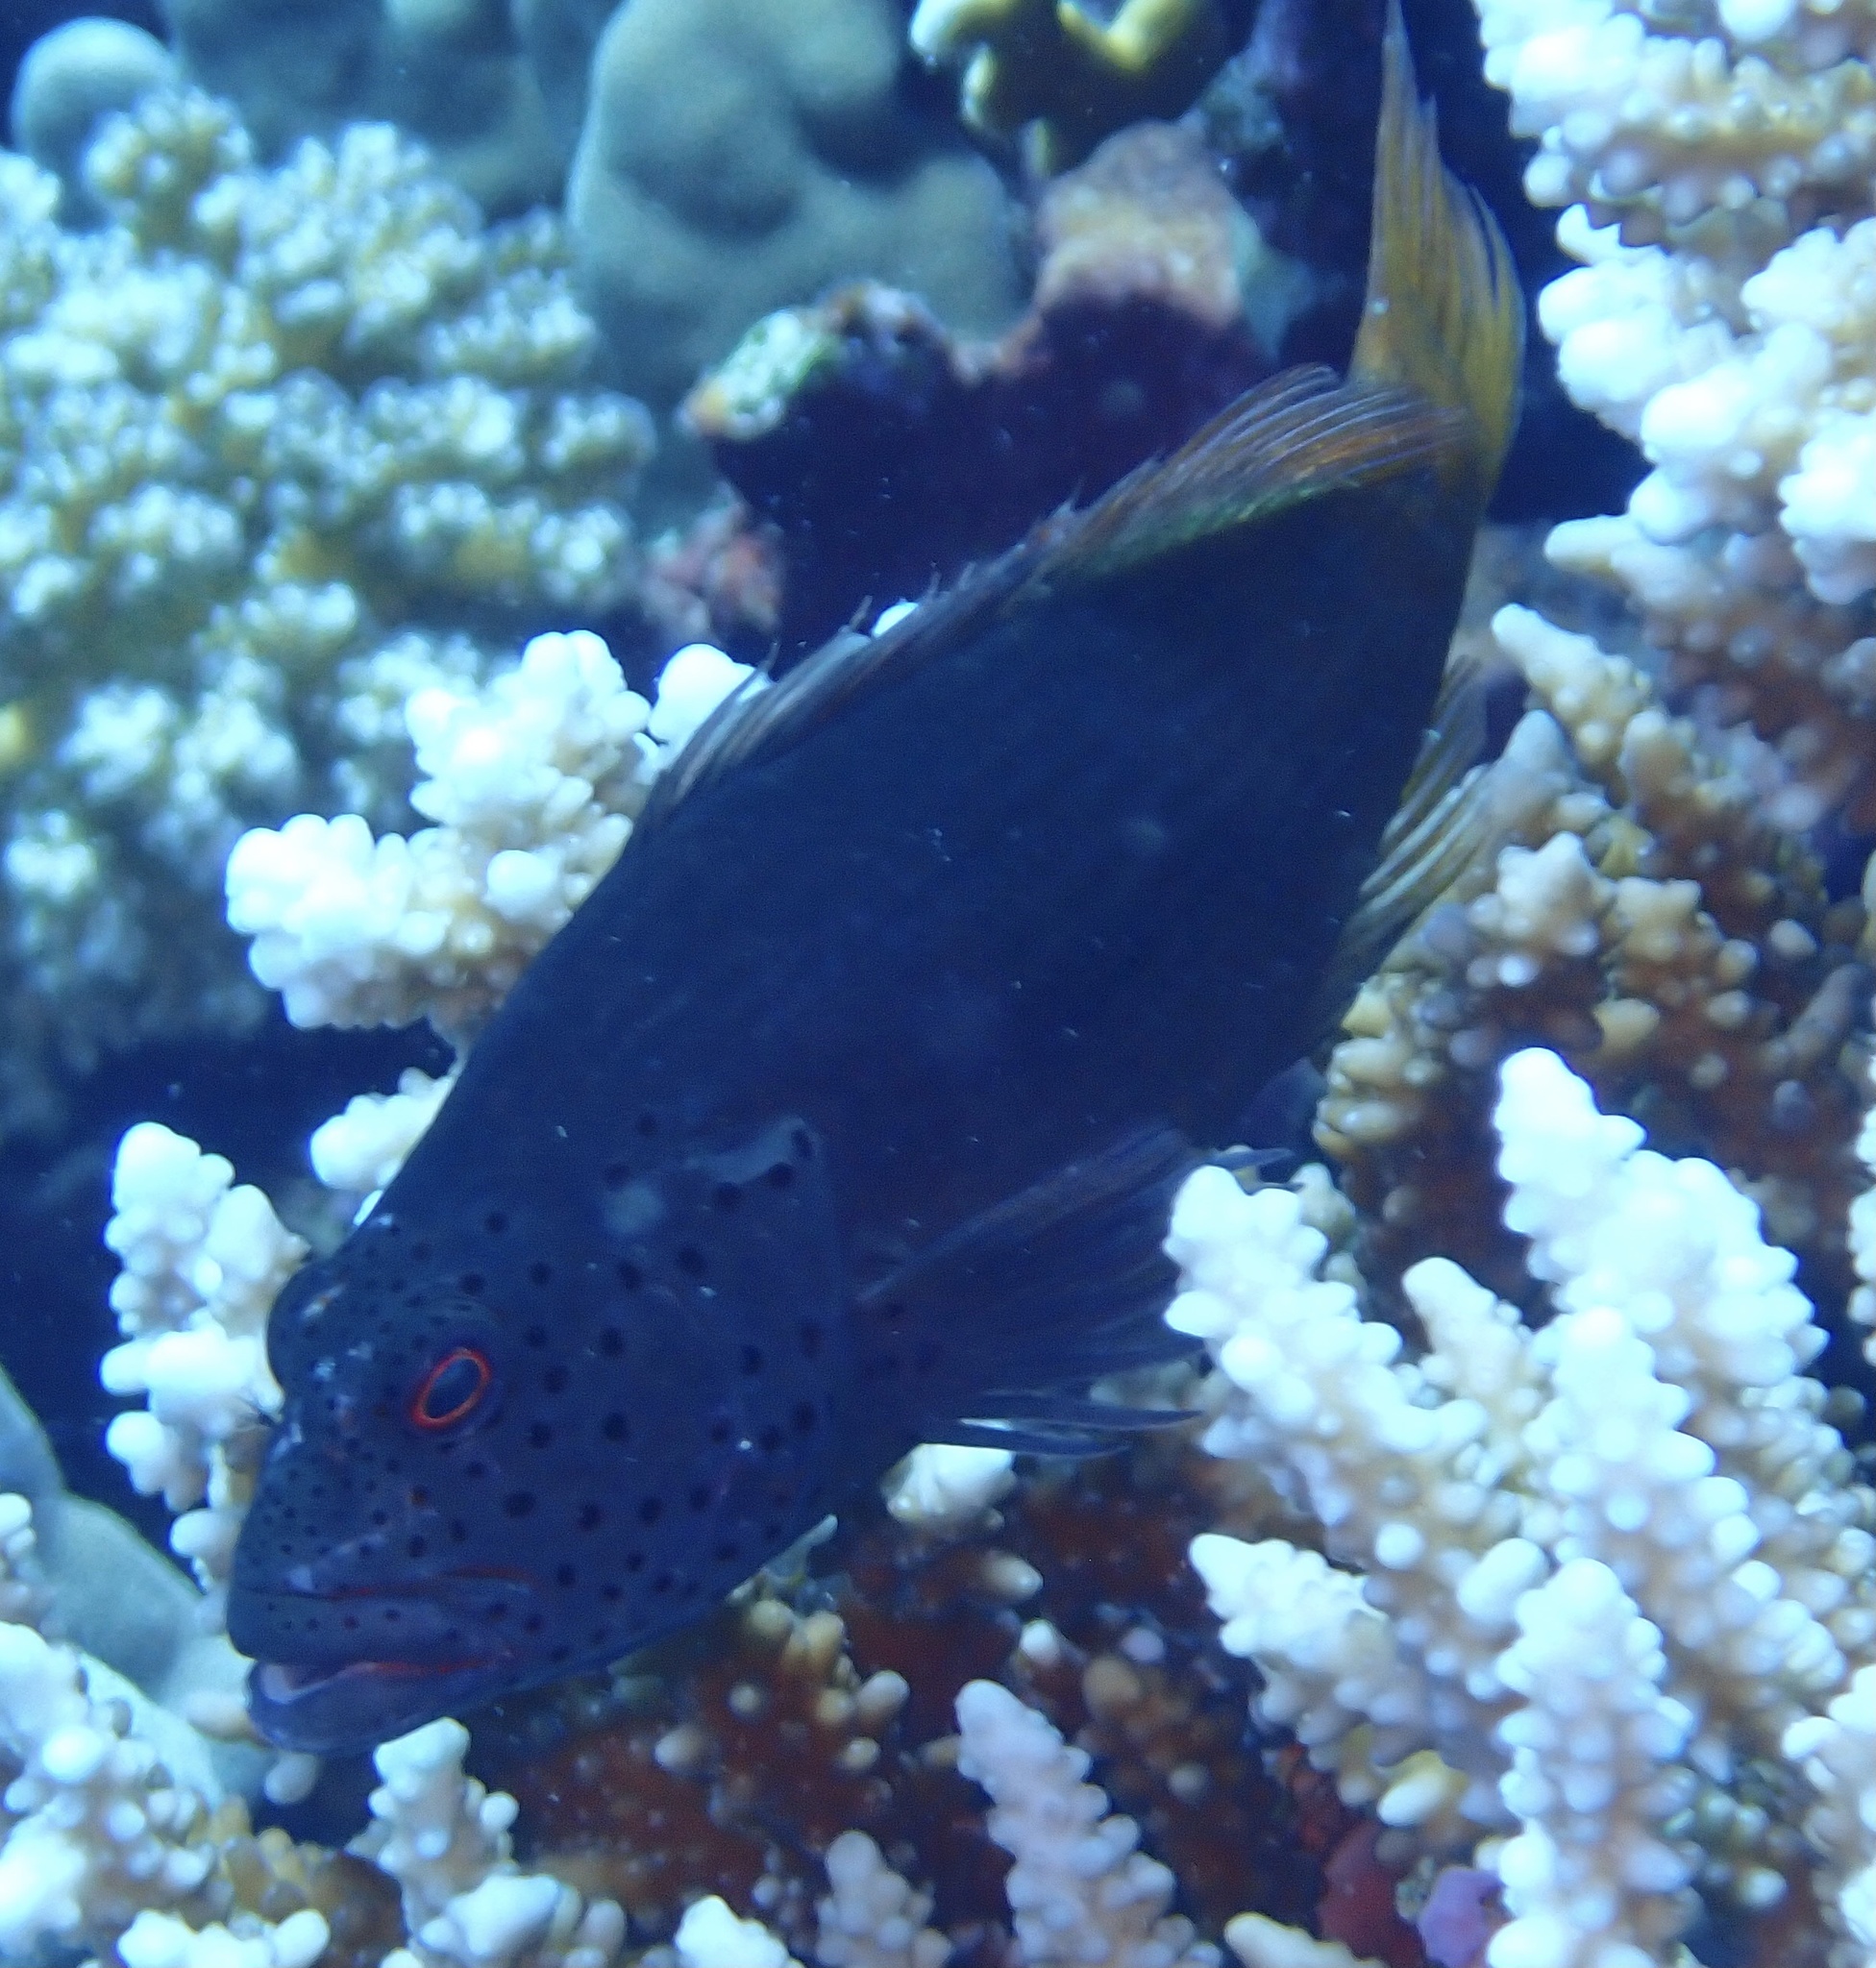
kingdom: Animalia
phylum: Chordata
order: Perciformes
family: Cirrhitidae
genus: Paracirrhites
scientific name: Paracirrhites forsteri
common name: Freckled hawkfish
